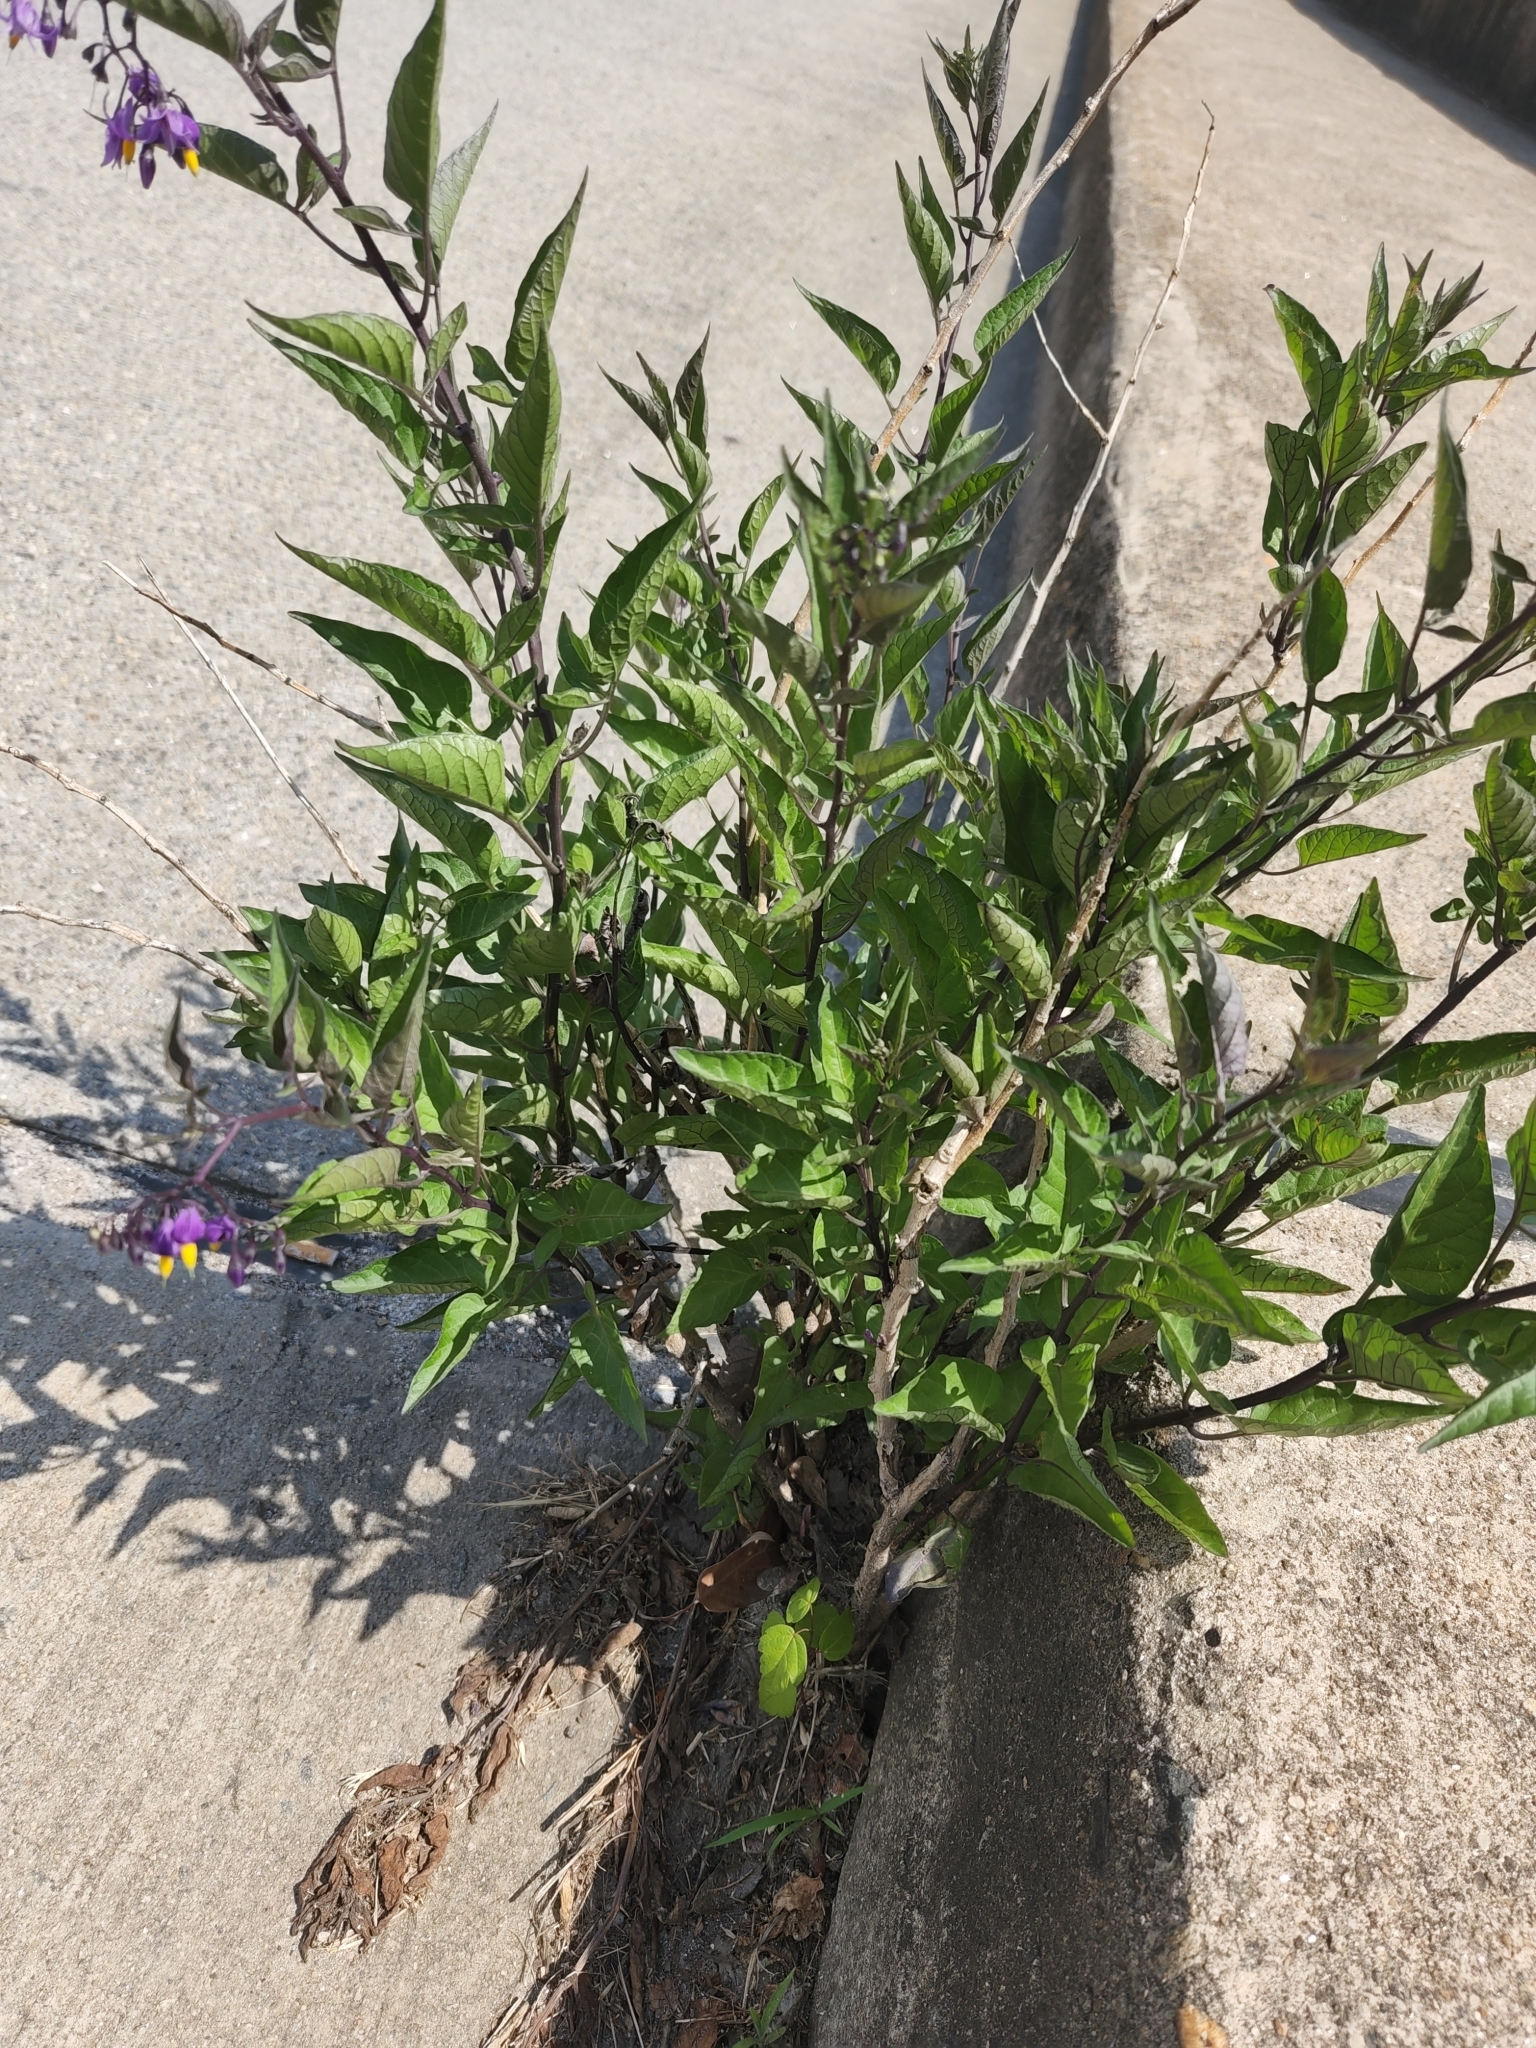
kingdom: Plantae
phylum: Tracheophyta
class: Magnoliopsida
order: Solanales
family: Solanaceae
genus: Solanum
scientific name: Solanum dulcamara
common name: Climbing nightshade
